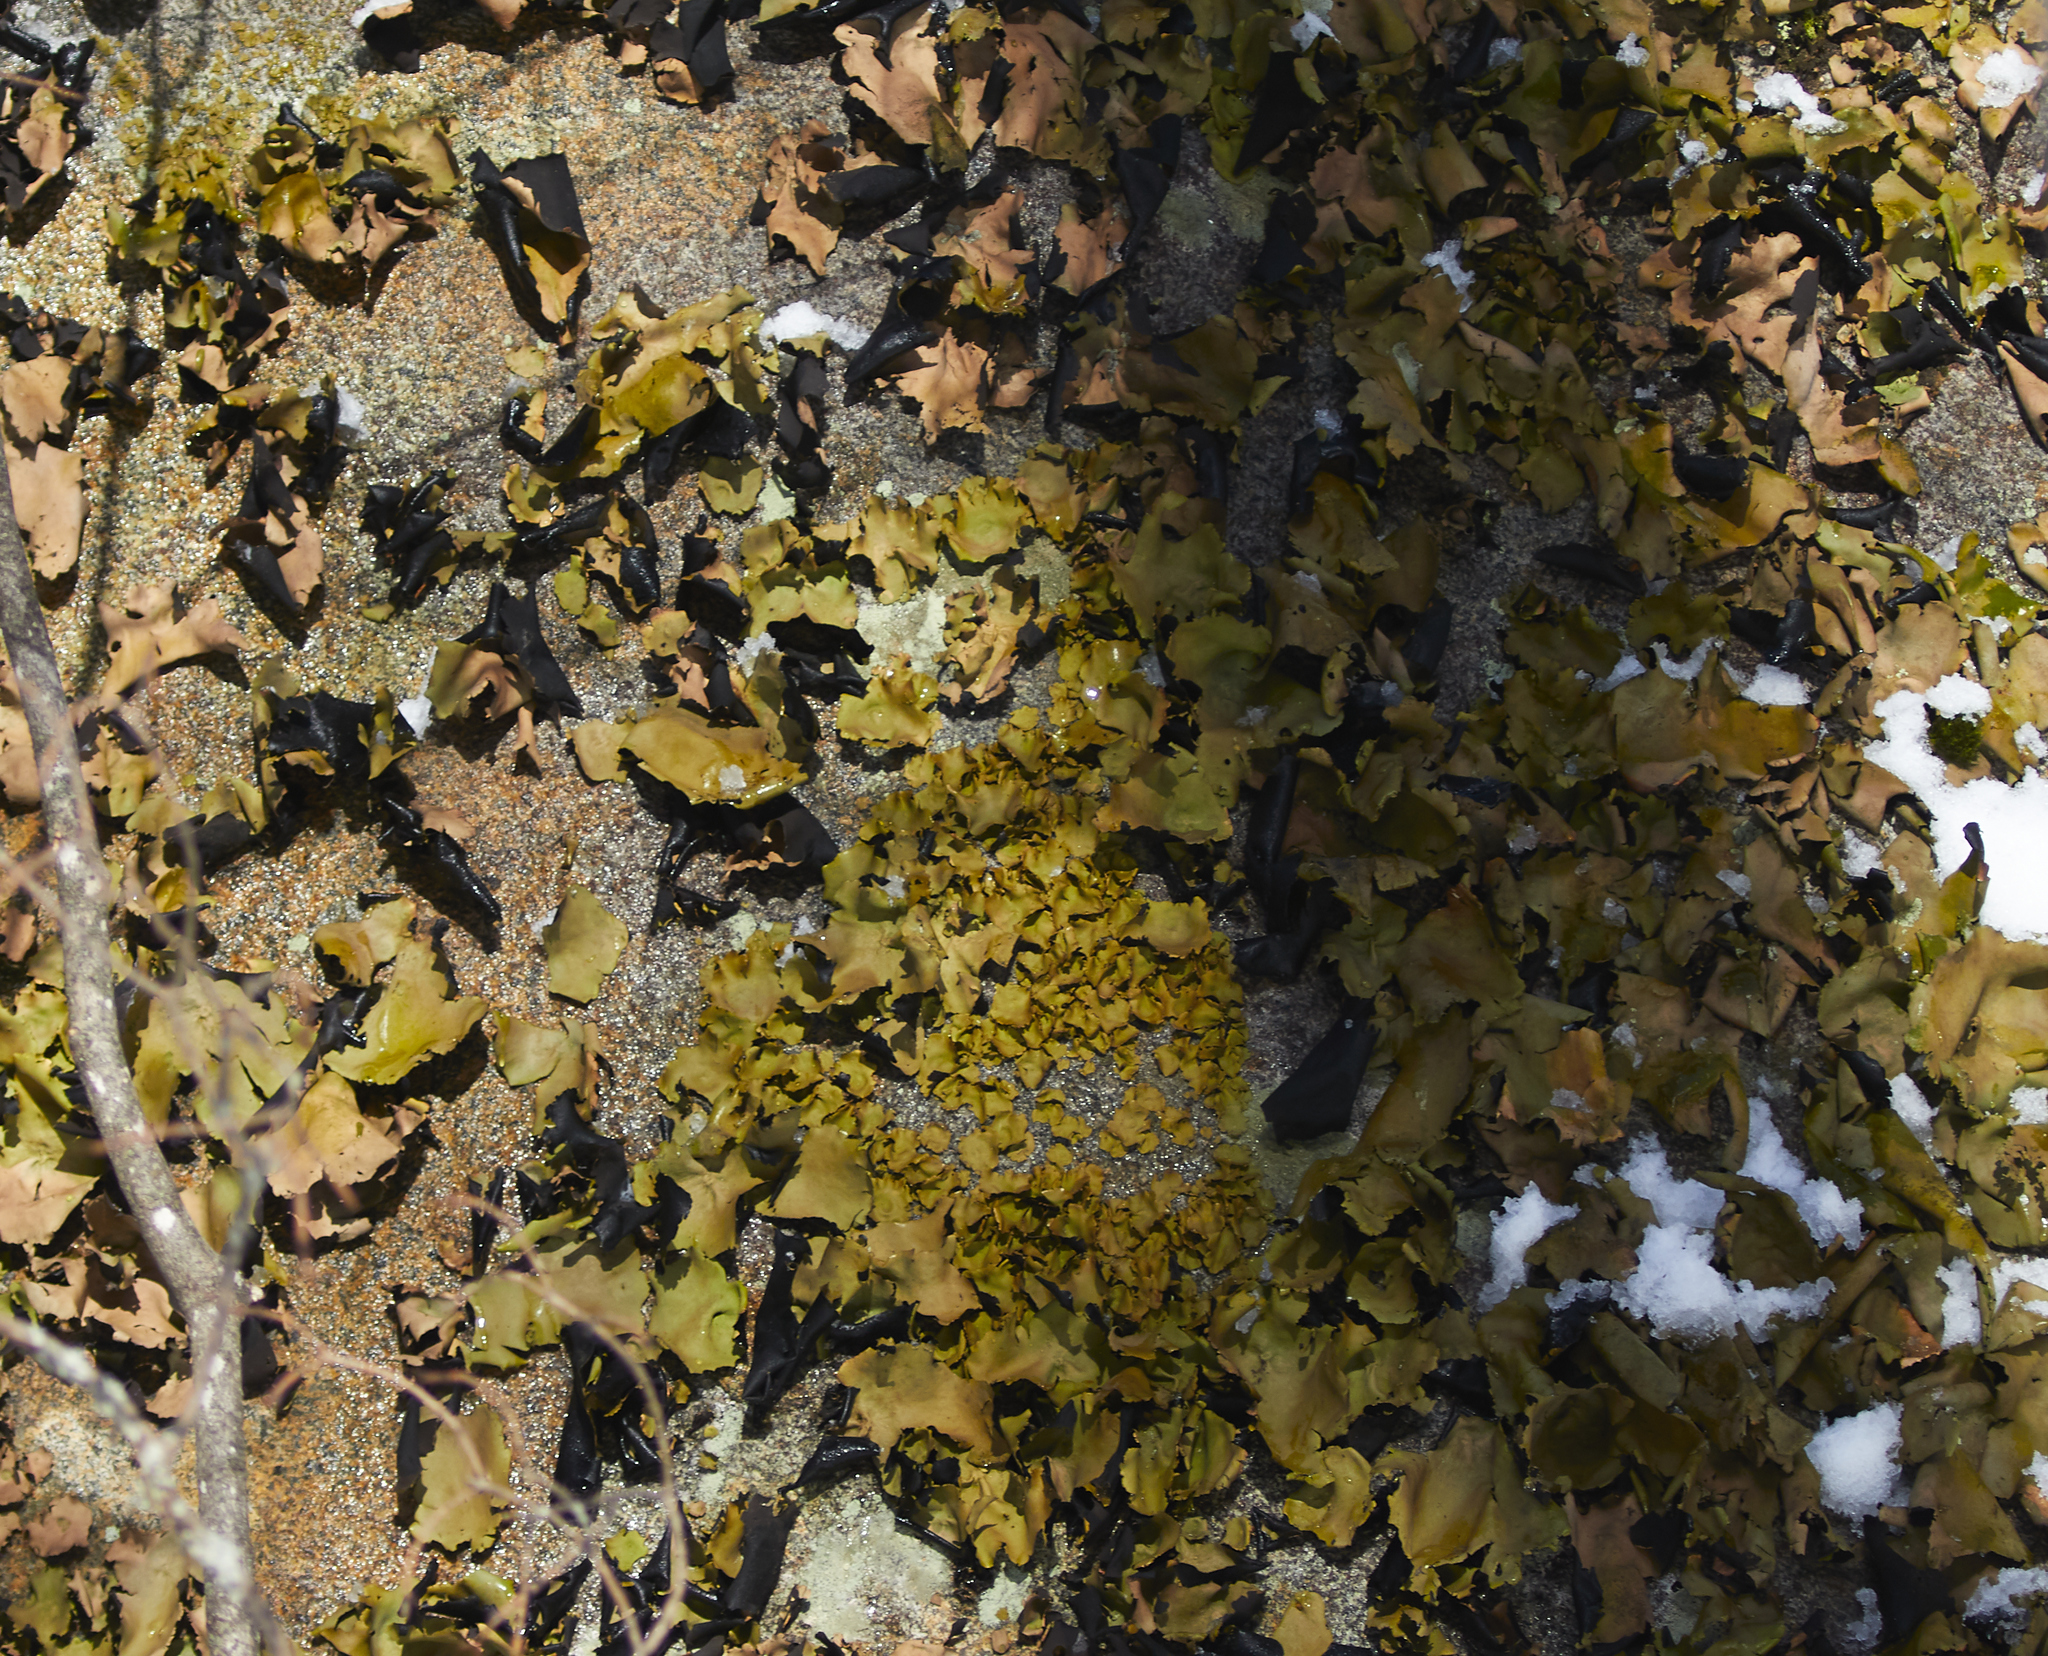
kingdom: Fungi
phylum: Ascomycota
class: Lecanoromycetes
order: Umbilicariales
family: Umbilicariaceae
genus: Umbilicaria
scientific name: Umbilicaria mammulata
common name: Smooth rock tripe
